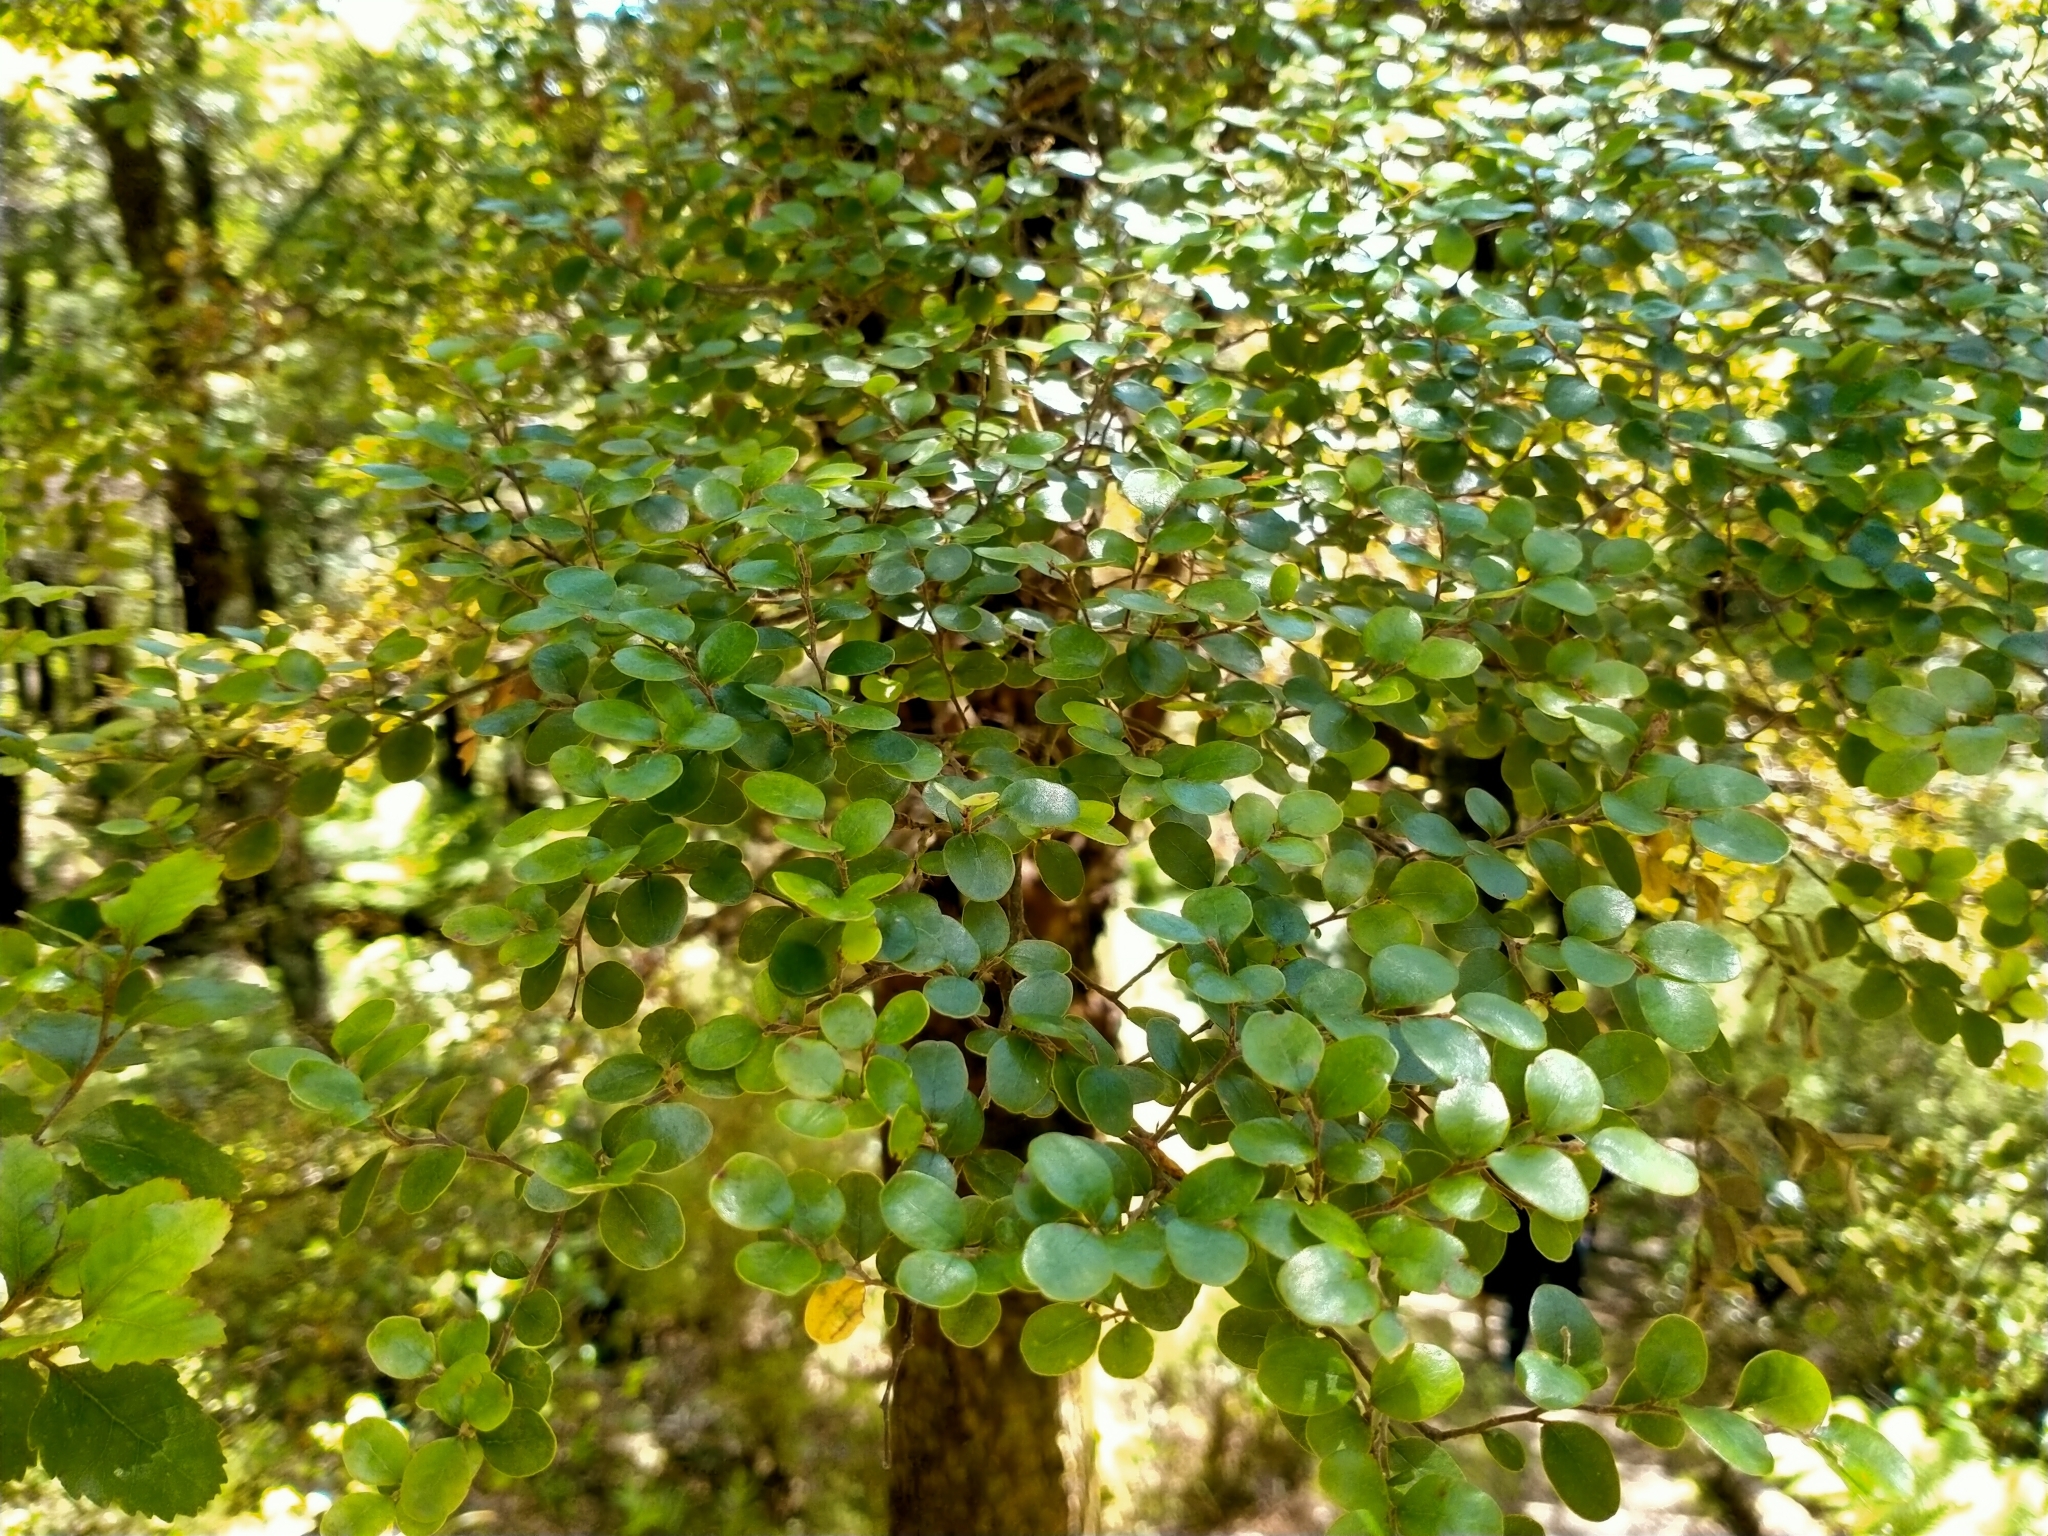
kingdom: Plantae
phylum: Tracheophyta
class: Magnoliopsida
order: Fagales
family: Nothofagaceae
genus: Nothofagus
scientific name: Nothofagus solandri
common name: Black beech
